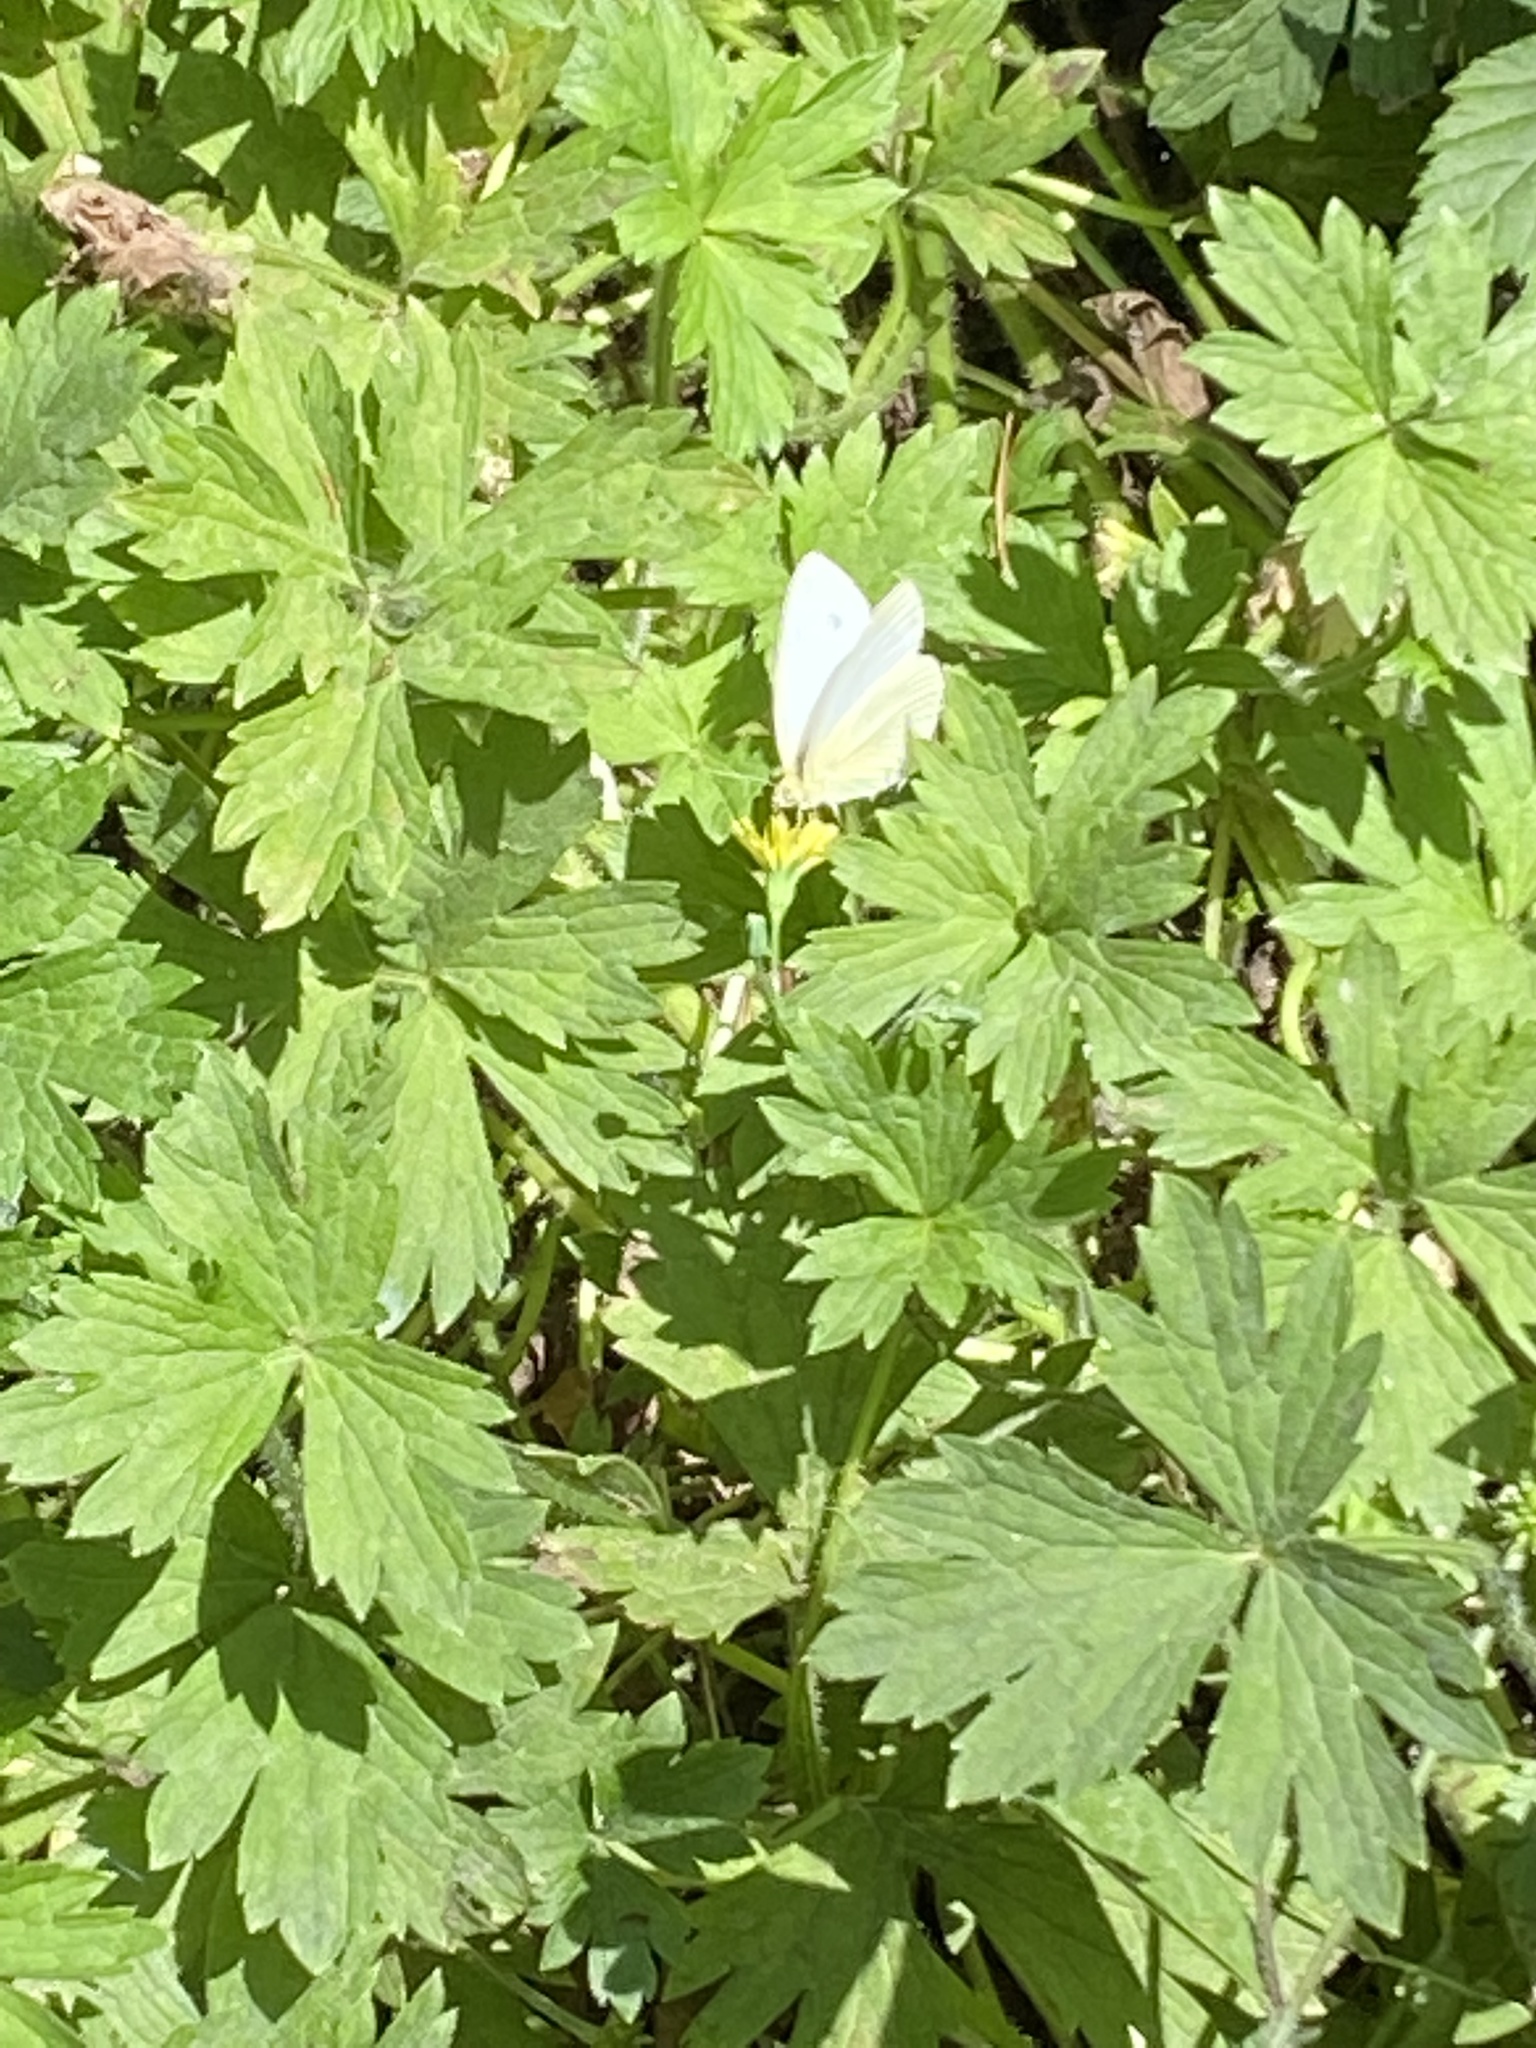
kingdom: Animalia
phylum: Arthropoda
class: Insecta
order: Lepidoptera
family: Pieridae
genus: Pieris
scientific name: Pieris rapae
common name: Small white
